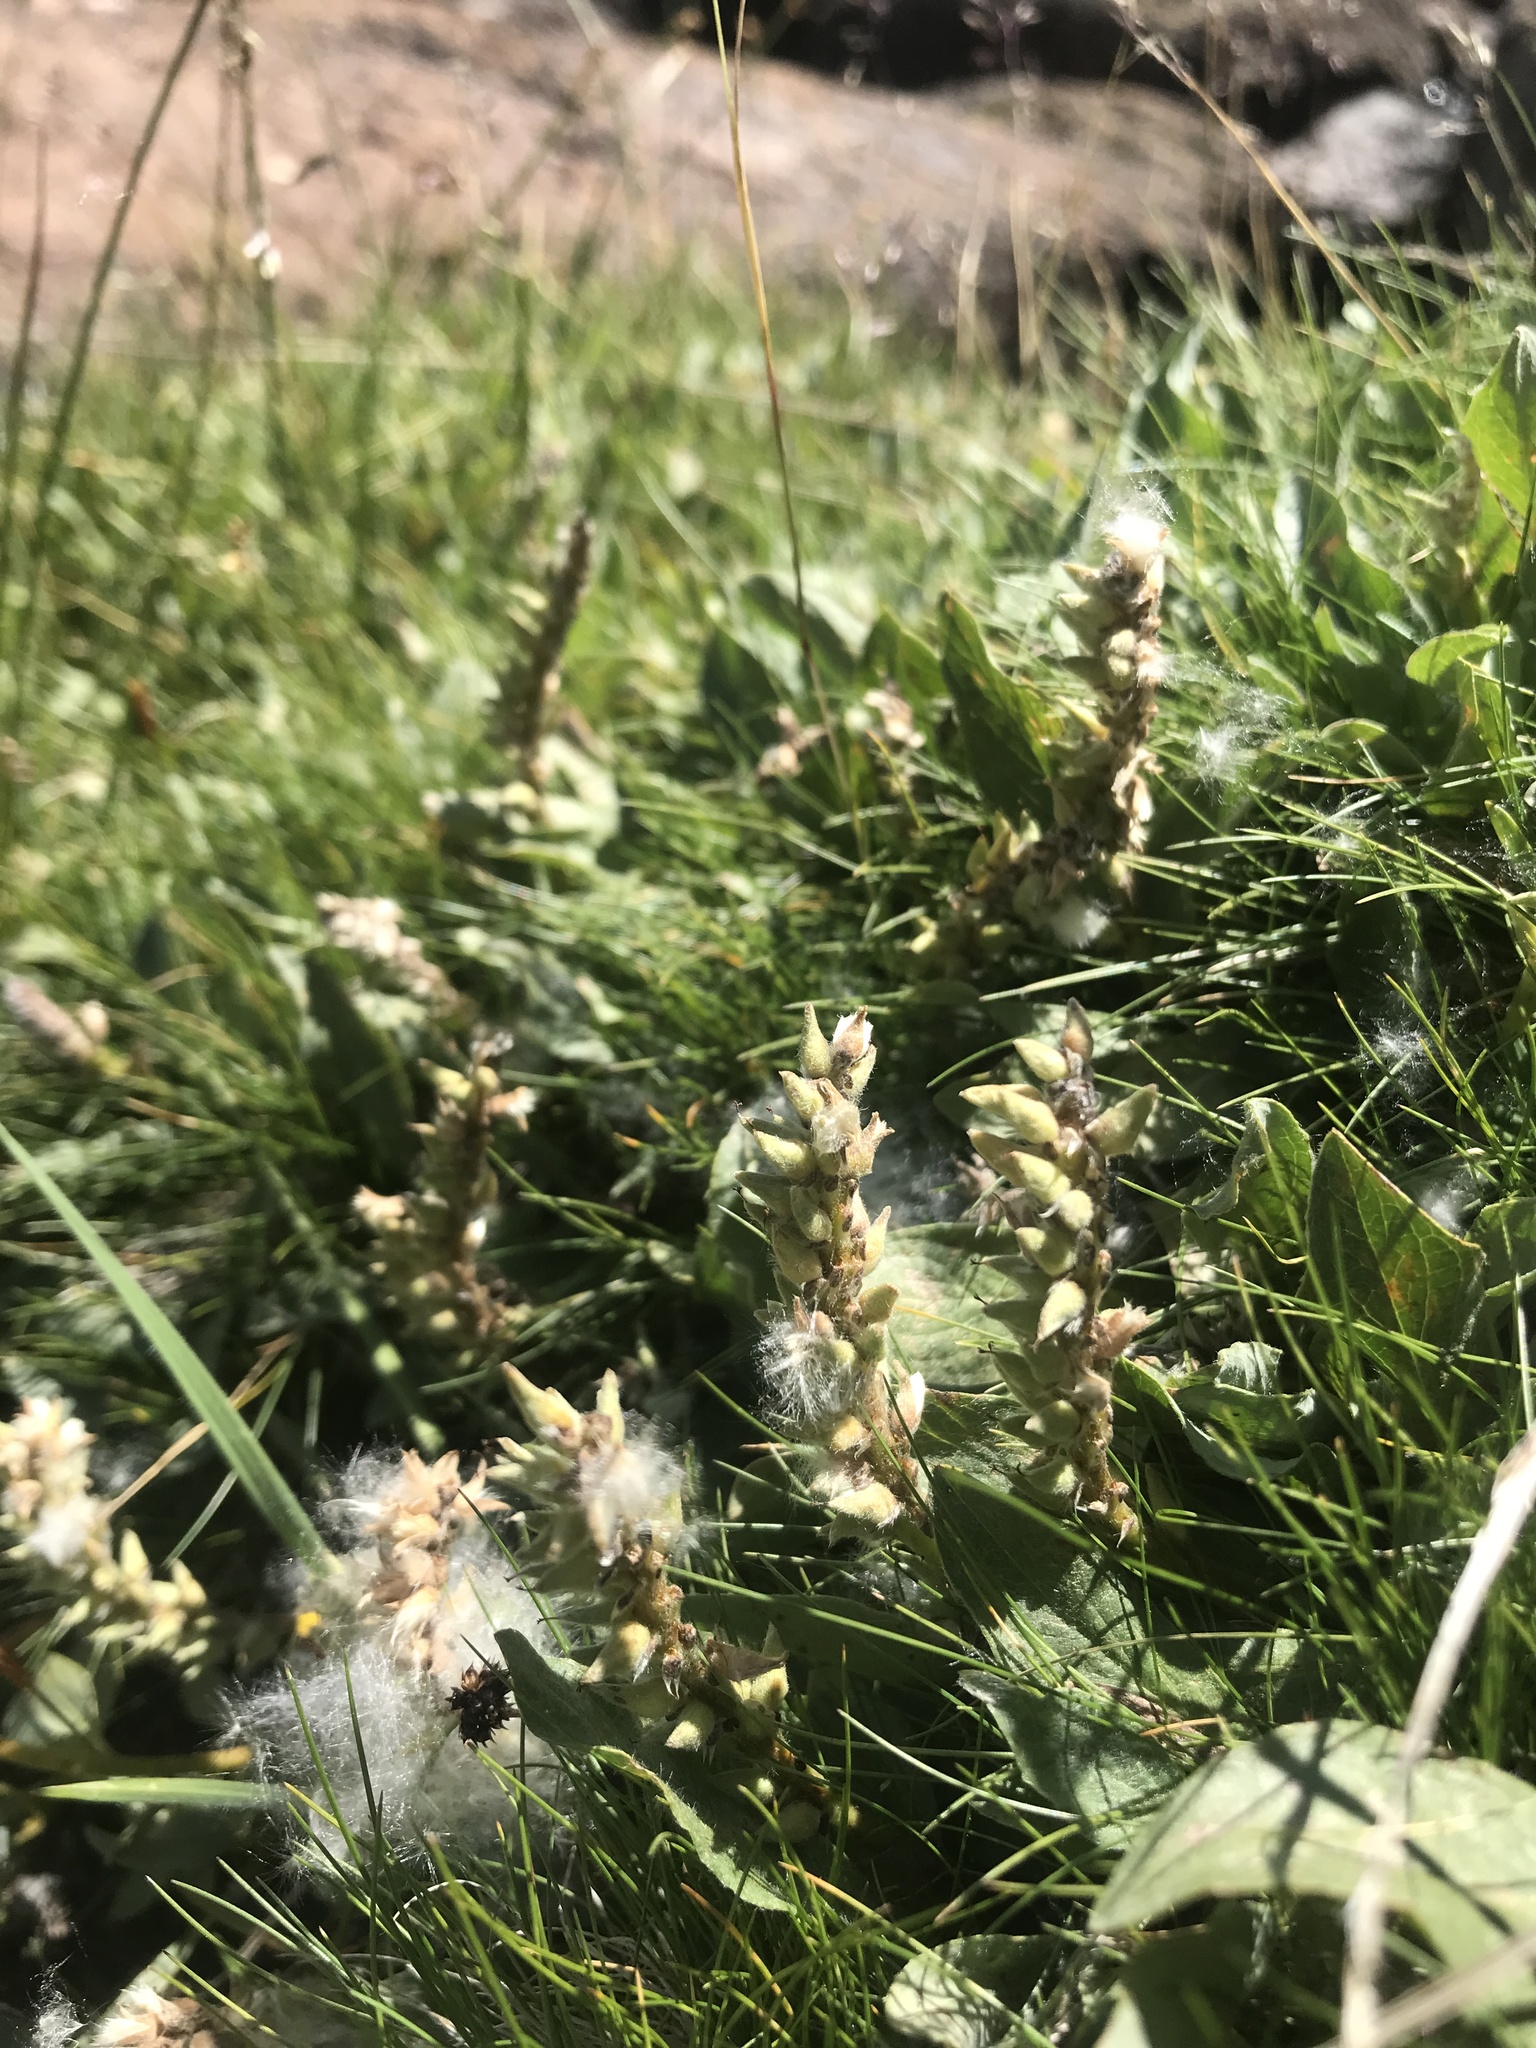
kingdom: Plantae
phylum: Tracheophyta
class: Magnoliopsida
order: Malpighiales
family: Salicaceae
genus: Salix
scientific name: Salix petrophila
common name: Rocky mountain willow
